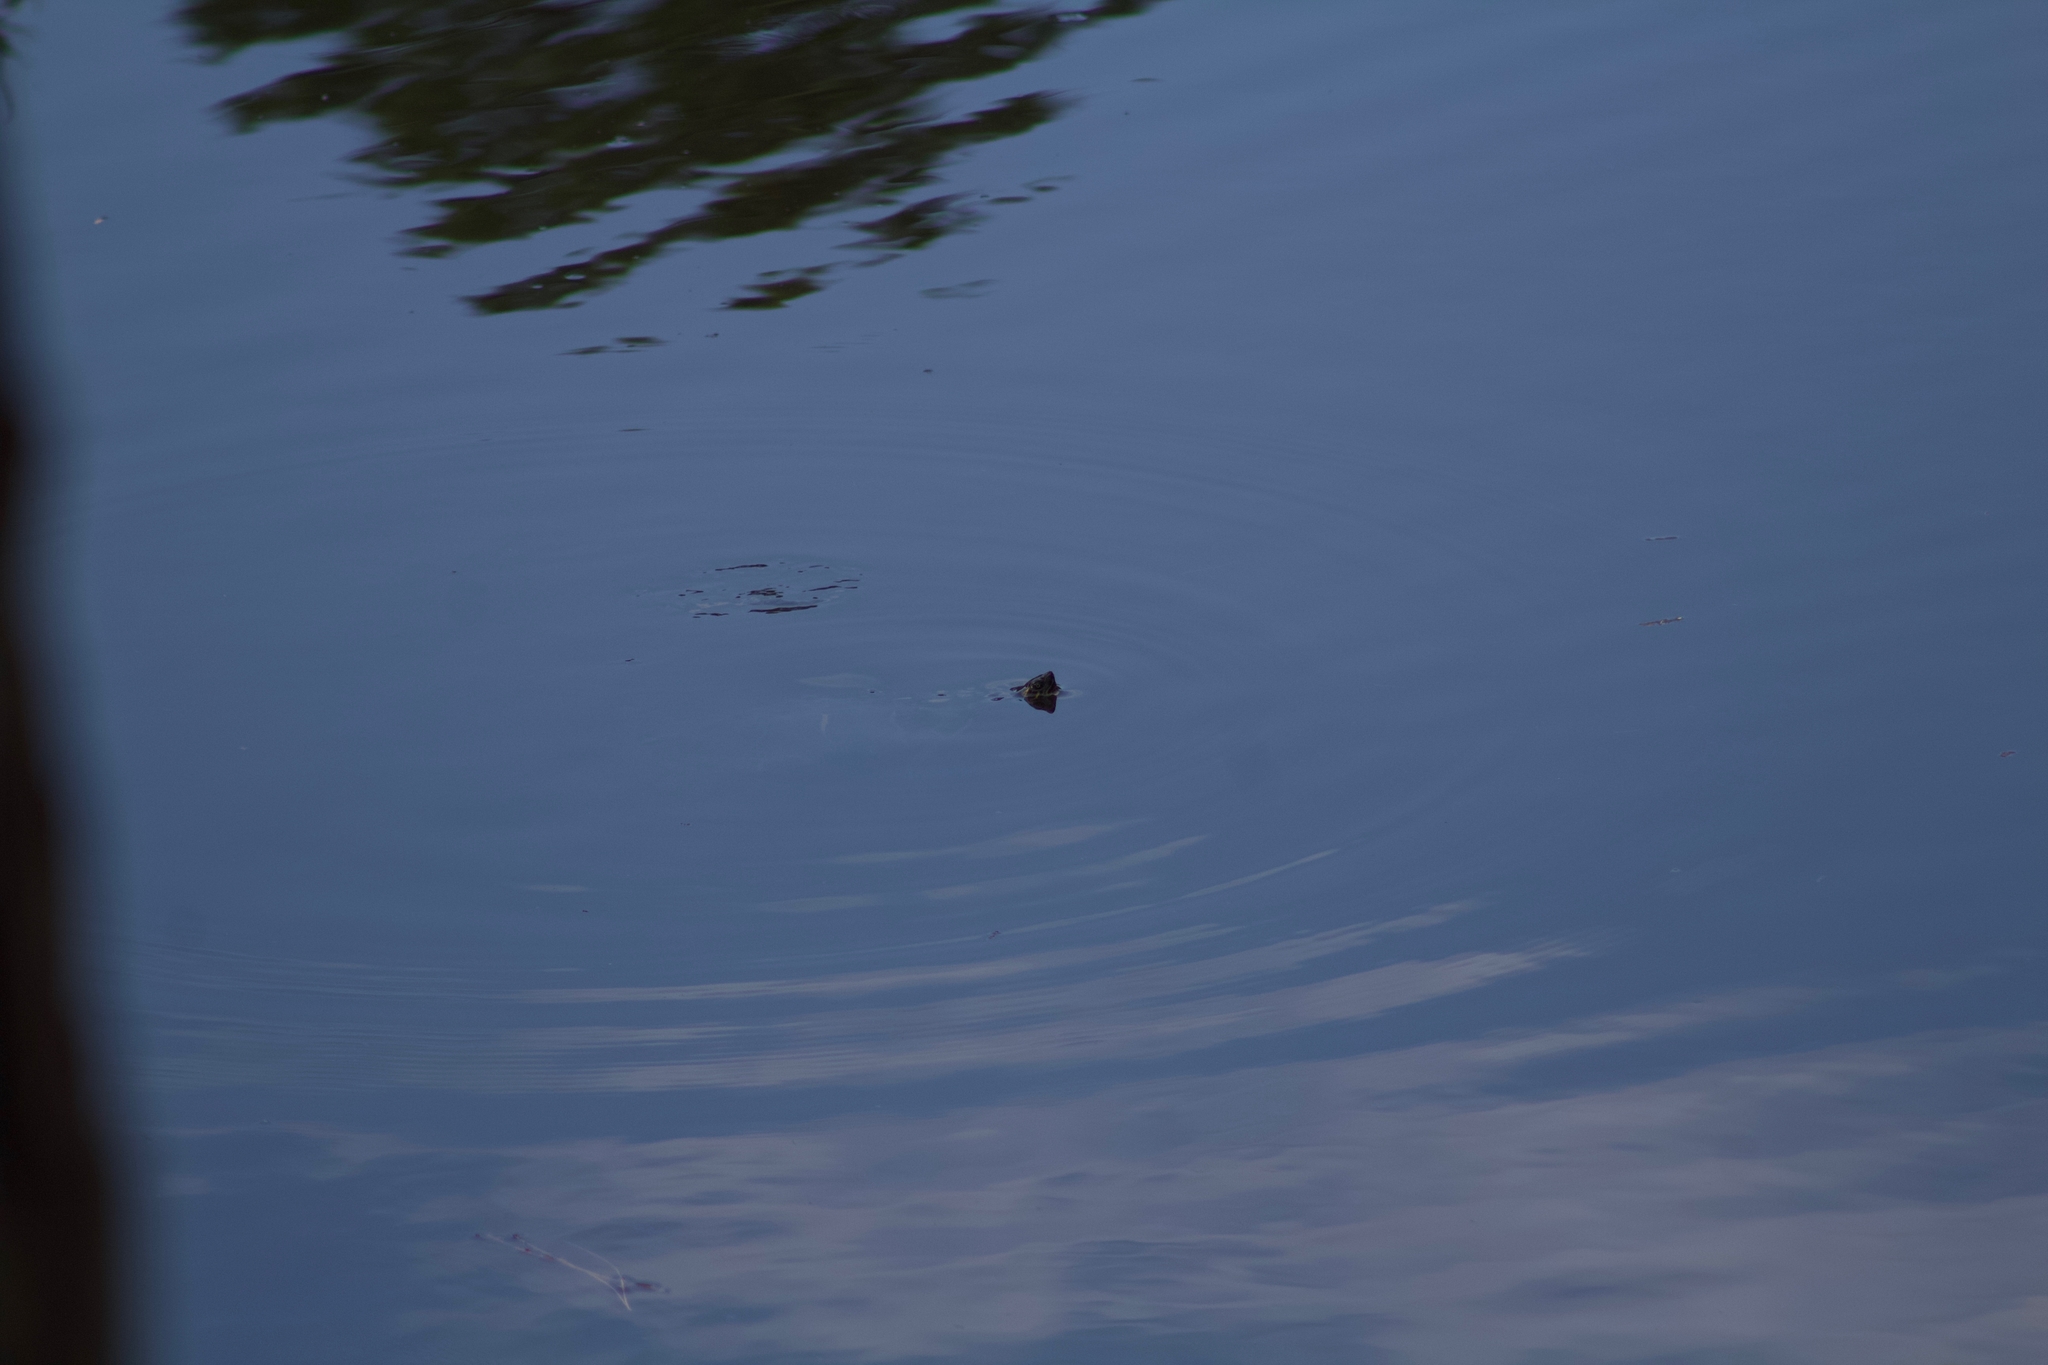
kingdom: Animalia
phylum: Chordata
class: Testudines
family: Emydidae
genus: Pseudemys
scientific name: Pseudemys concinna
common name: Eastern river cooter
